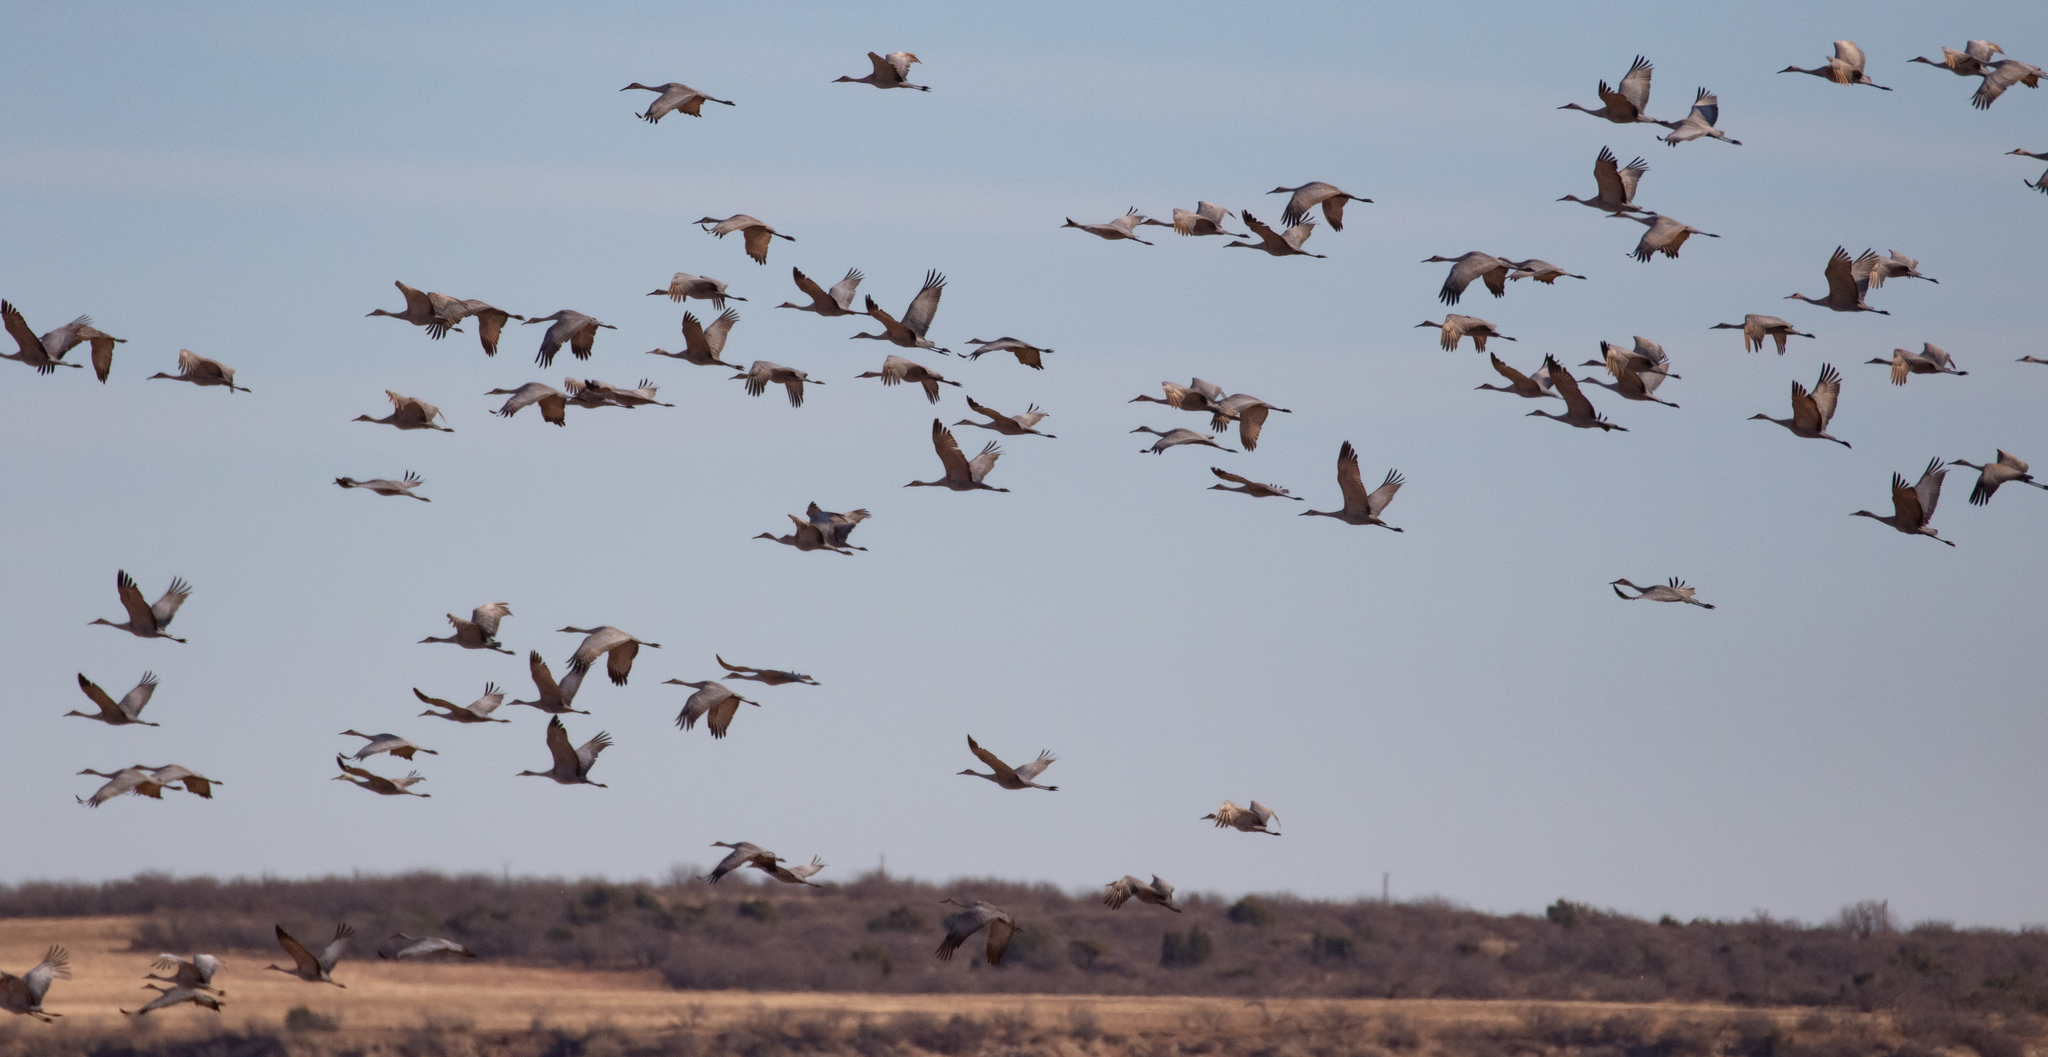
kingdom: Animalia
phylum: Chordata
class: Aves
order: Gruiformes
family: Gruidae
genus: Grus
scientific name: Grus canadensis
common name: Sandhill crane
